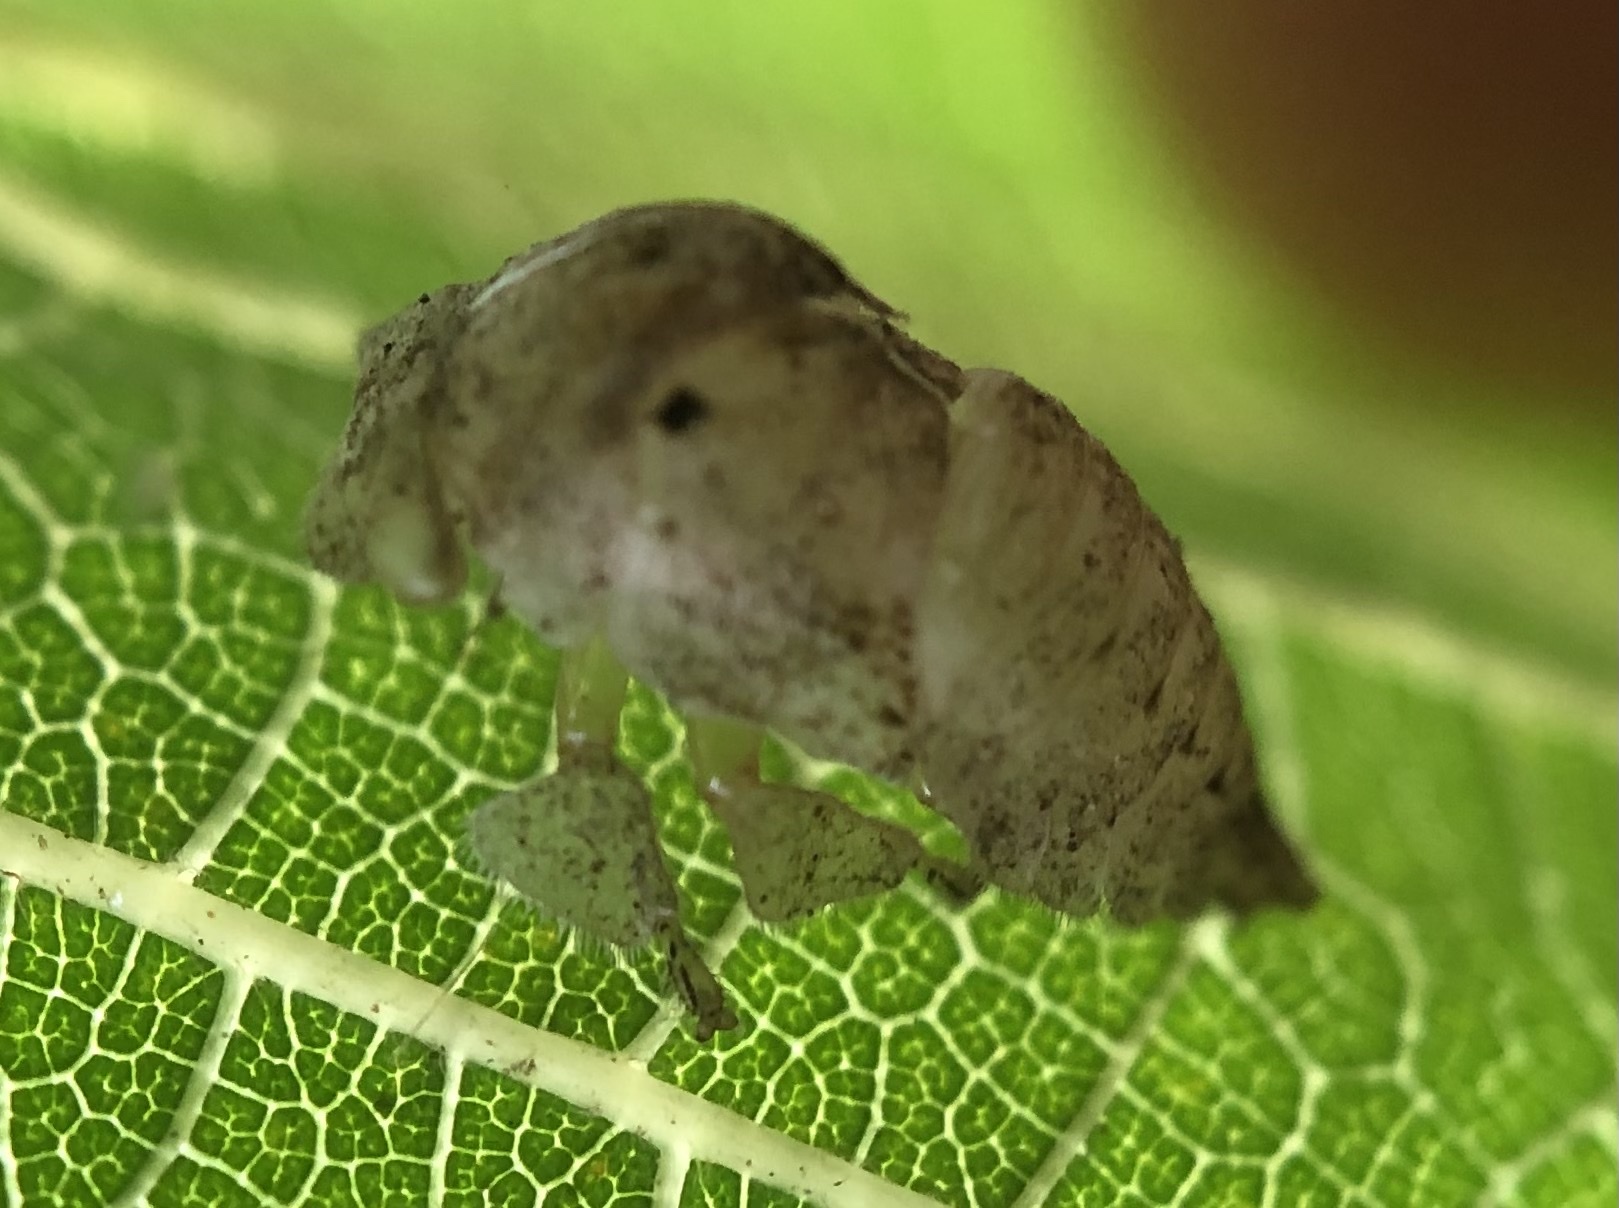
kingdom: Animalia
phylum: Arthropoda
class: Insecta
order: Hemiptera
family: Membracidae
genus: Hebetica
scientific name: Hebetica
